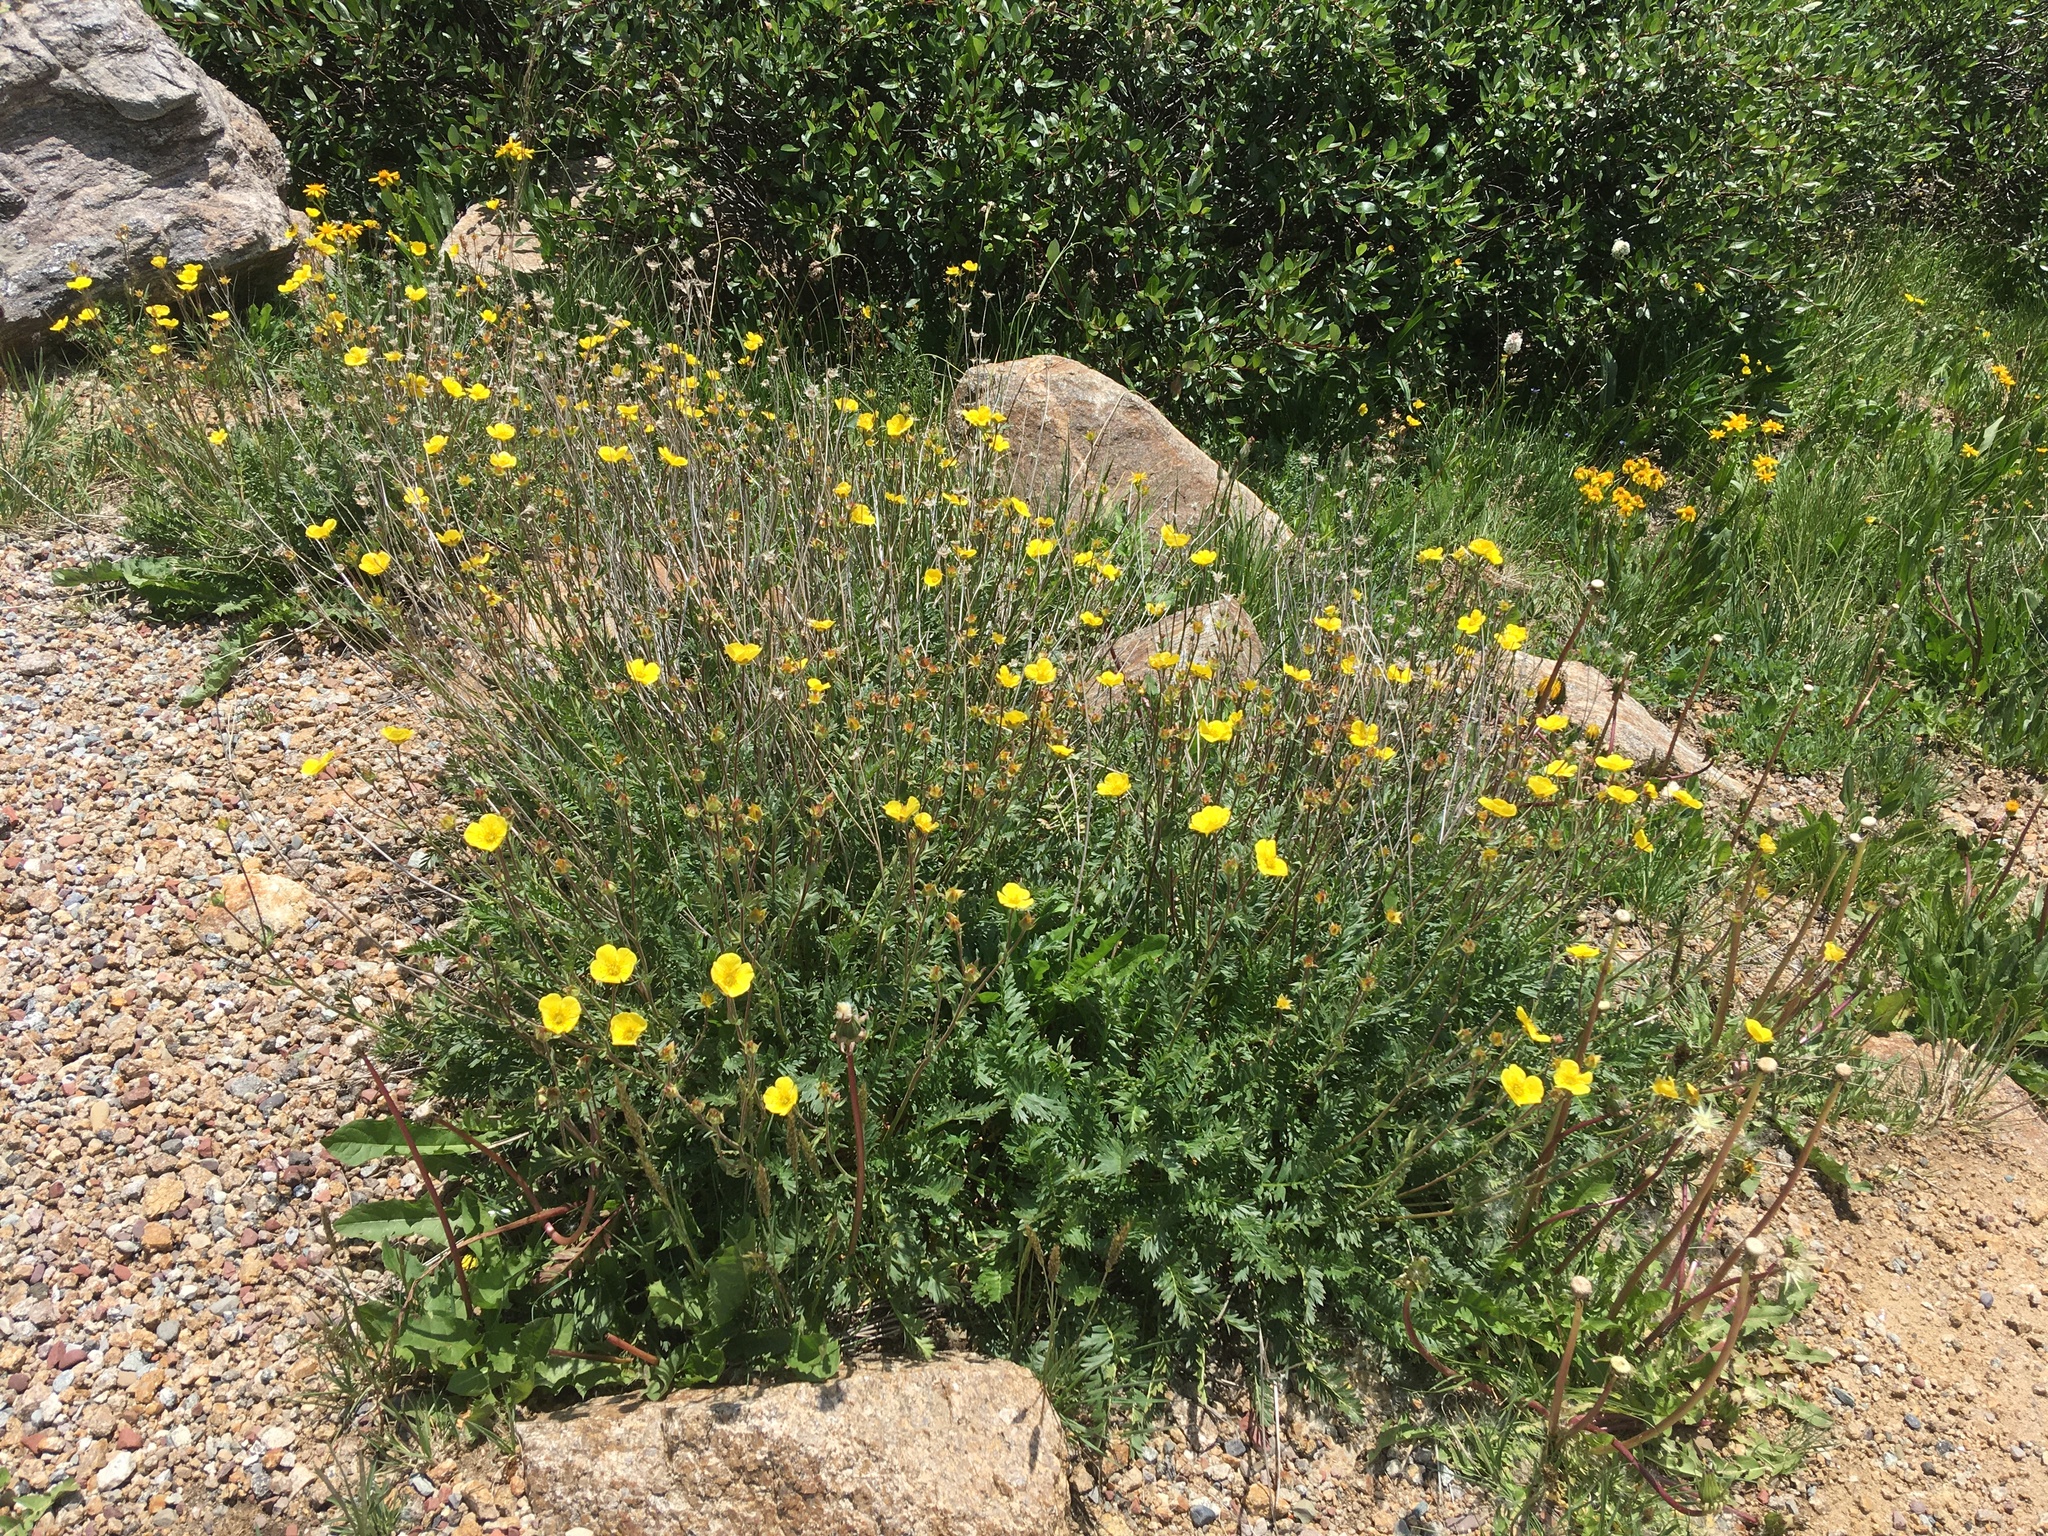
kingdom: Plantae
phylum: Tracheophyta
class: Magnoliopsida
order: Rosales
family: Rosaceae
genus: Geum
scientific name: Geum rossii
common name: Alpine avens
